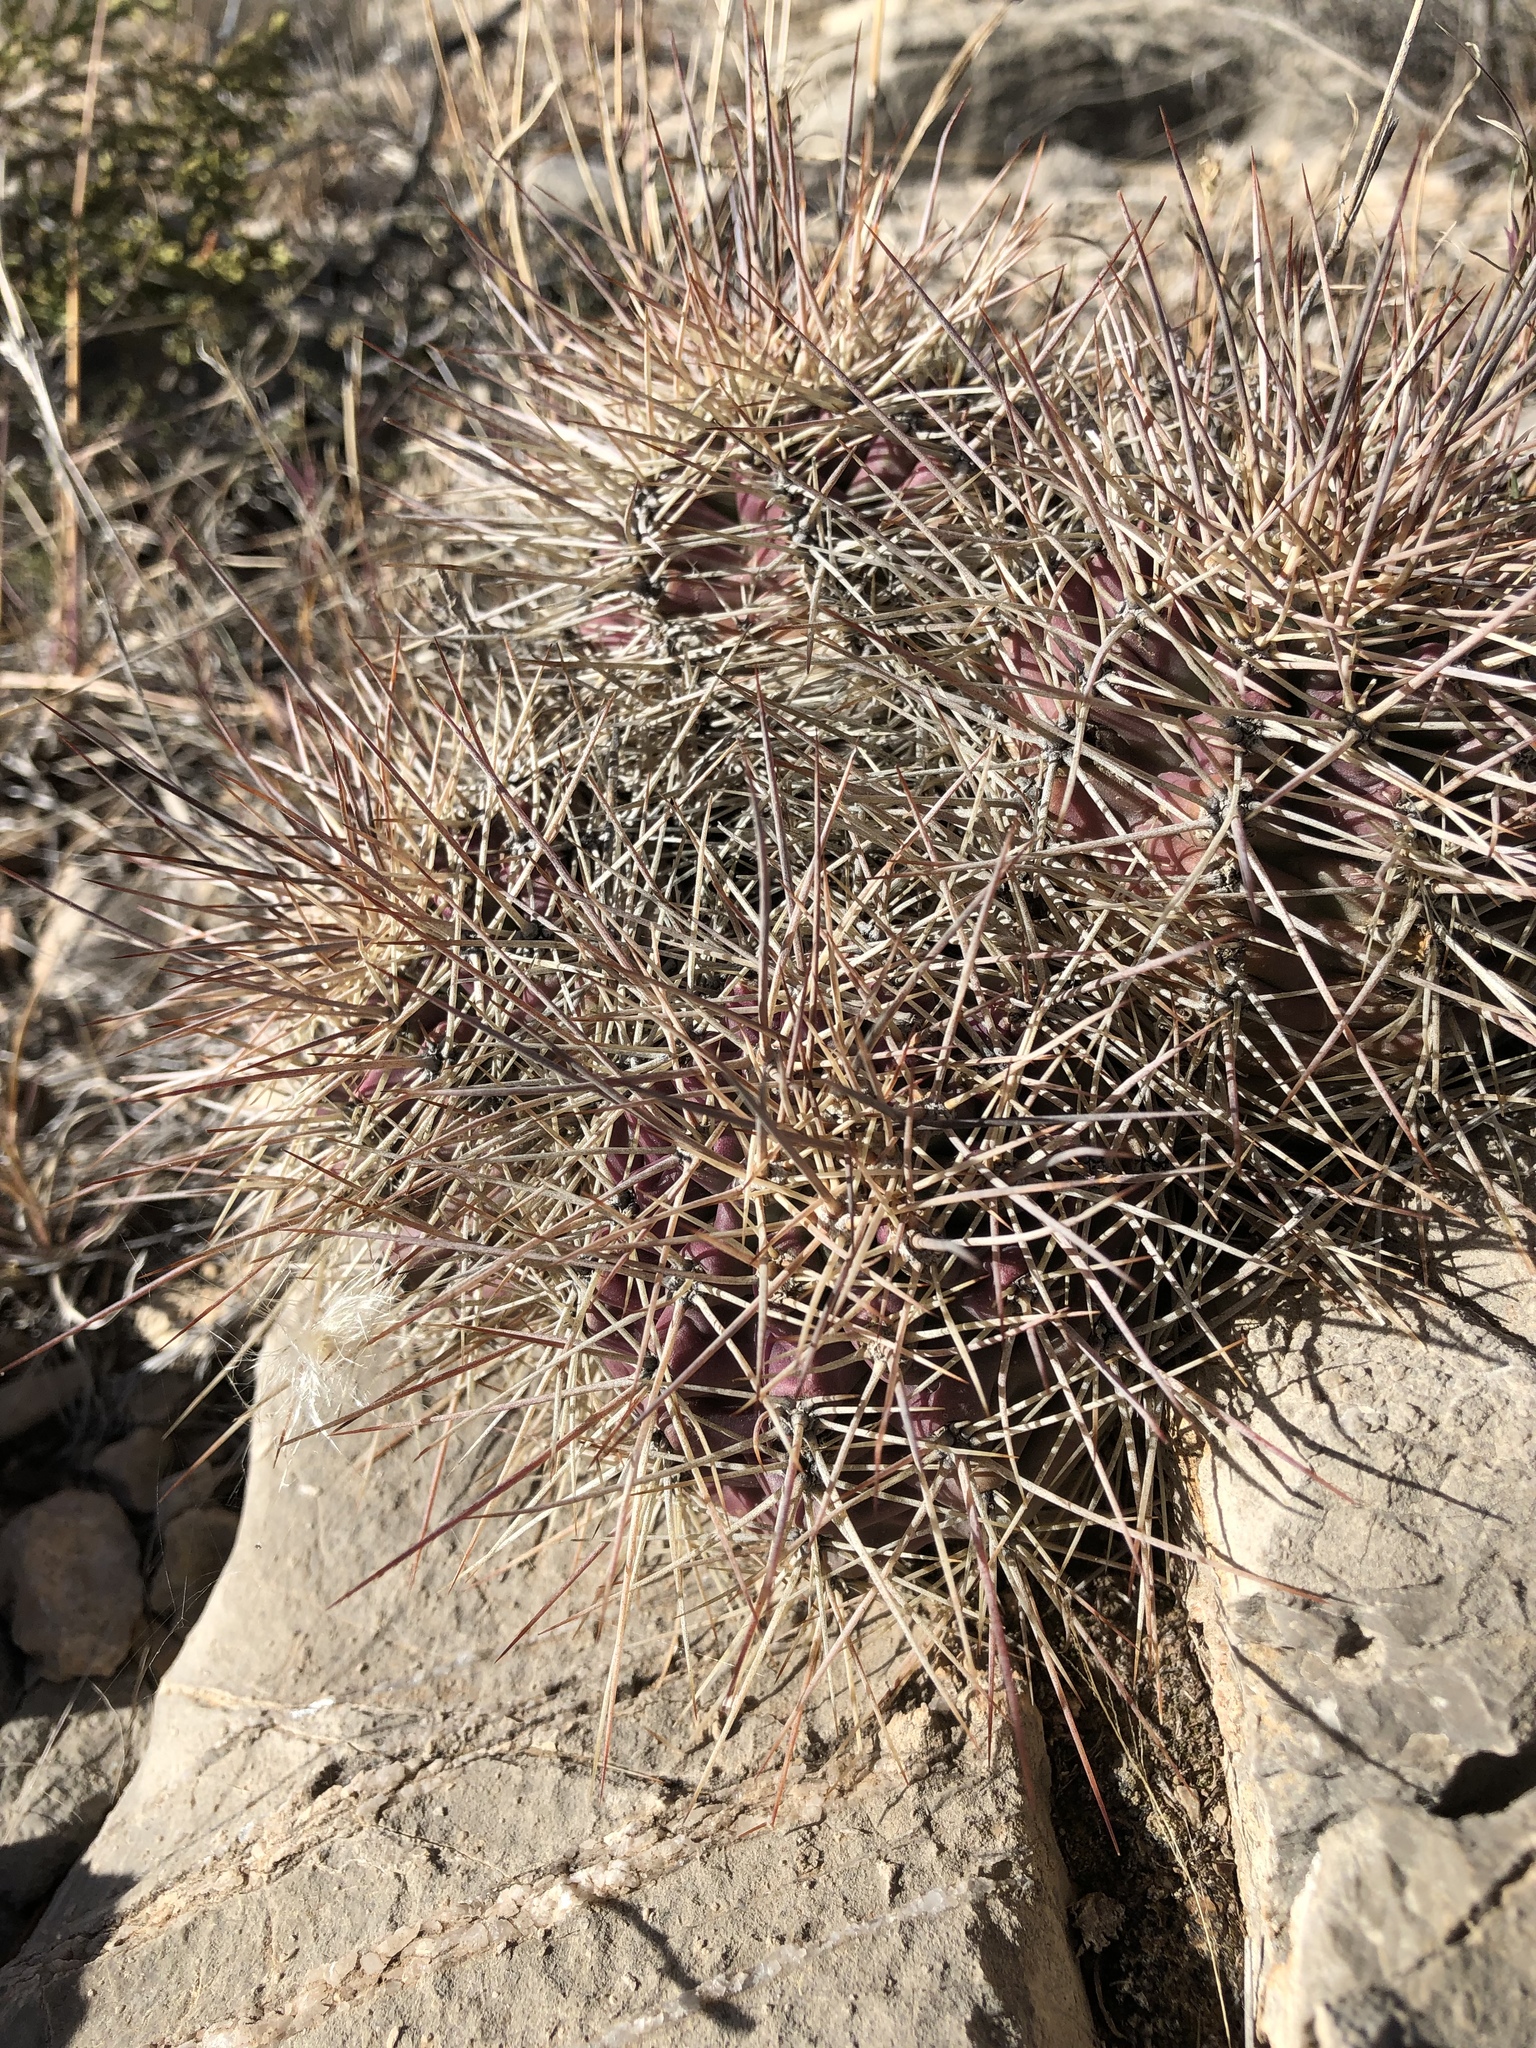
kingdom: Plantae
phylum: Tracheophyta
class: Magnoliopsida
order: Caryophyllales
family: Cactaceae
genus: Echinocereus
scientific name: Echinocereus coccineus
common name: Scarlet hedgehog cactus
